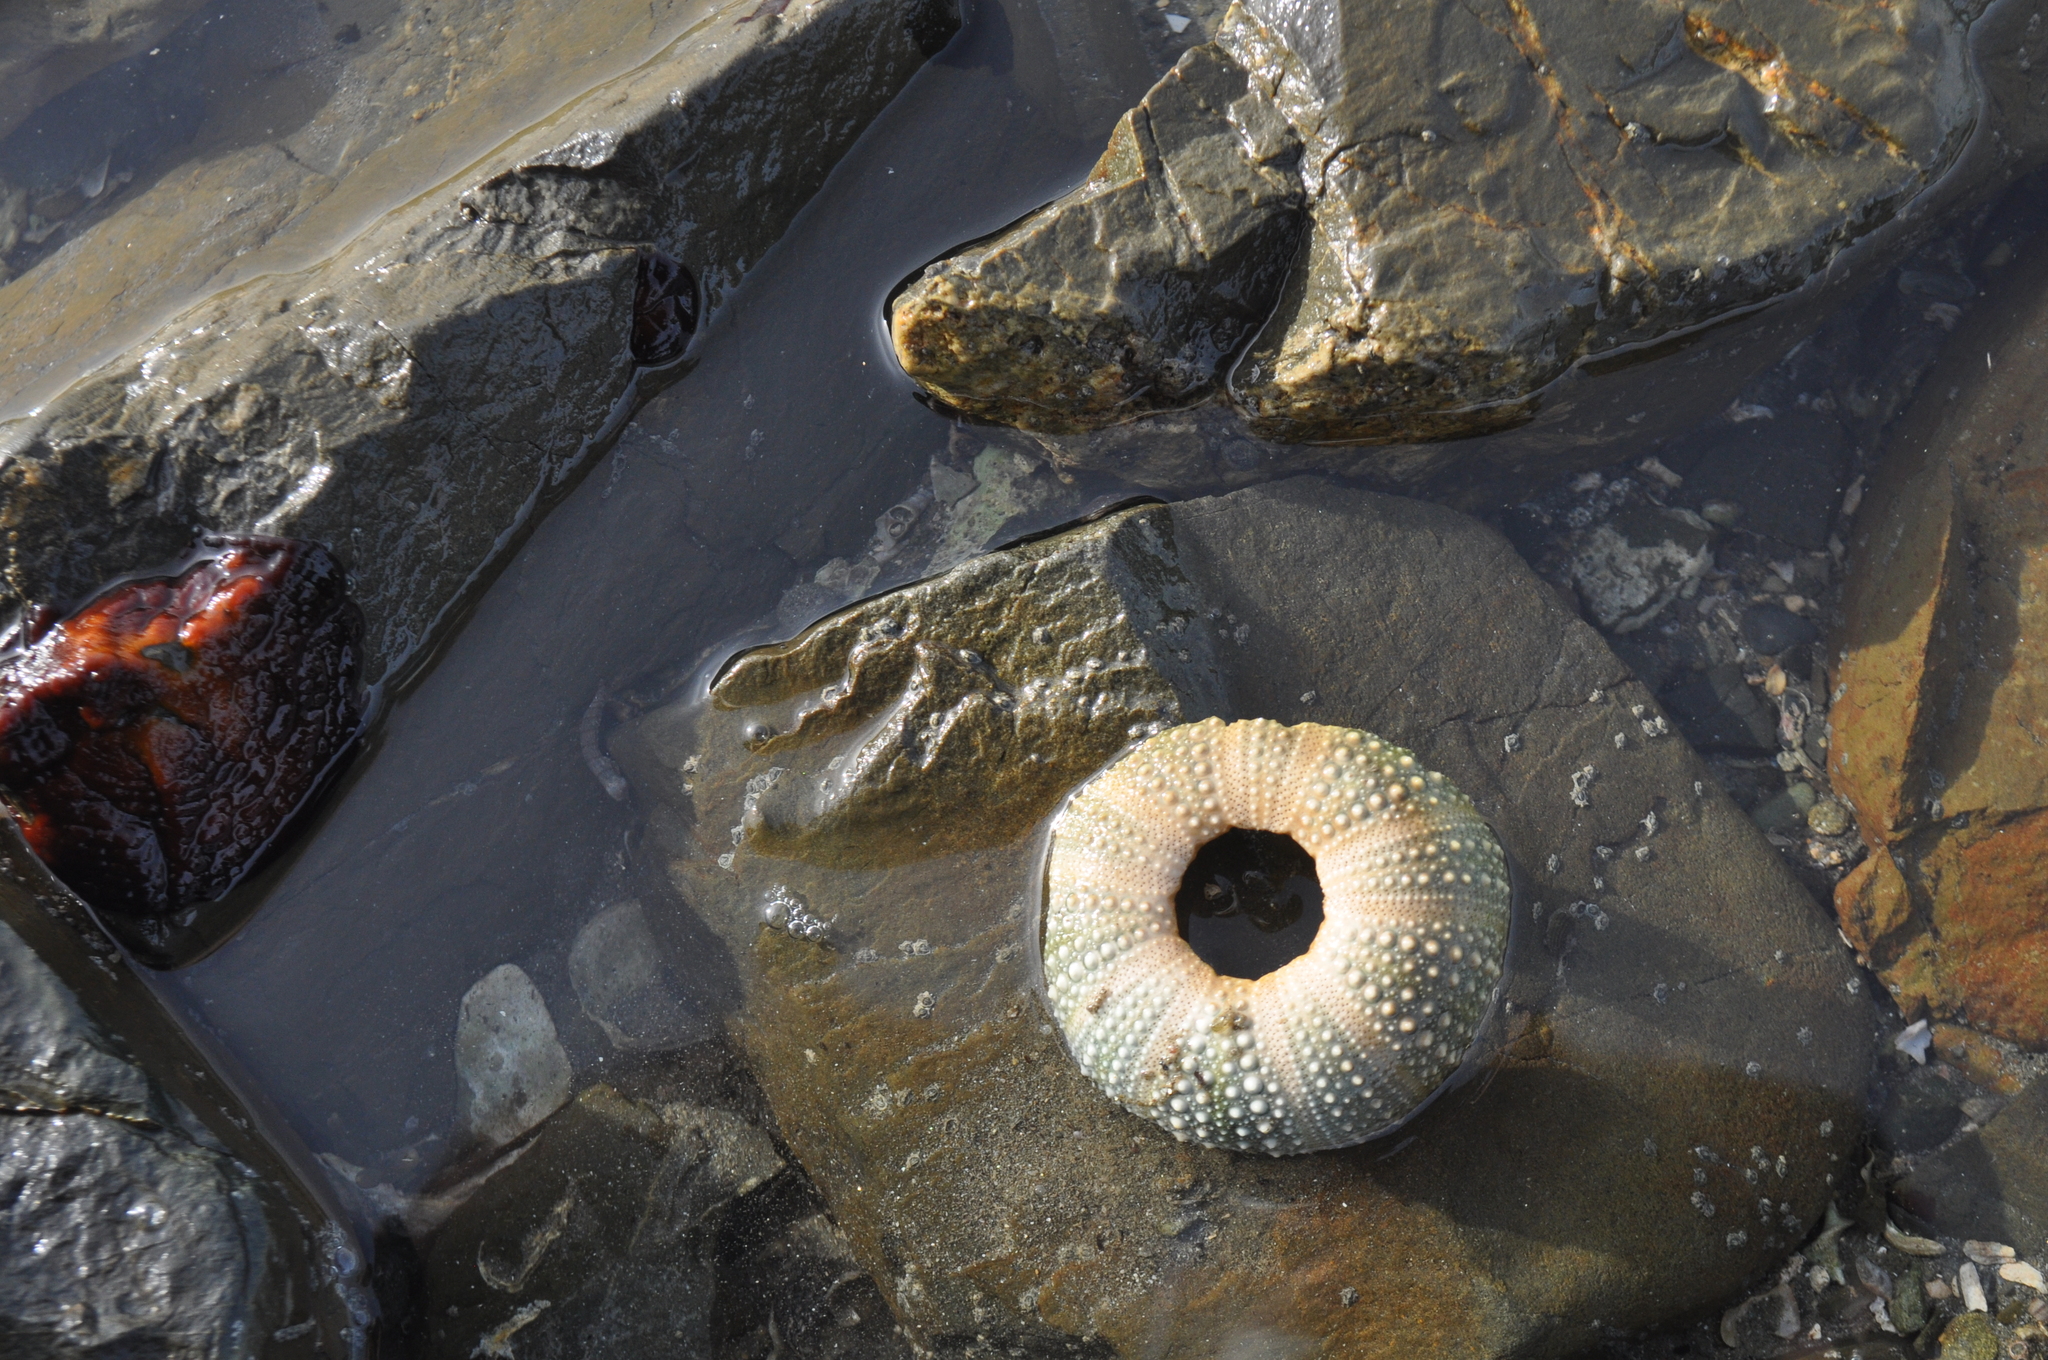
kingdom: Animalia
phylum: Echinodermata
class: Echinoidea
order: Camarodonta
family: Echinometridae
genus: Evechinus
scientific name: Evechinus chloroticus
